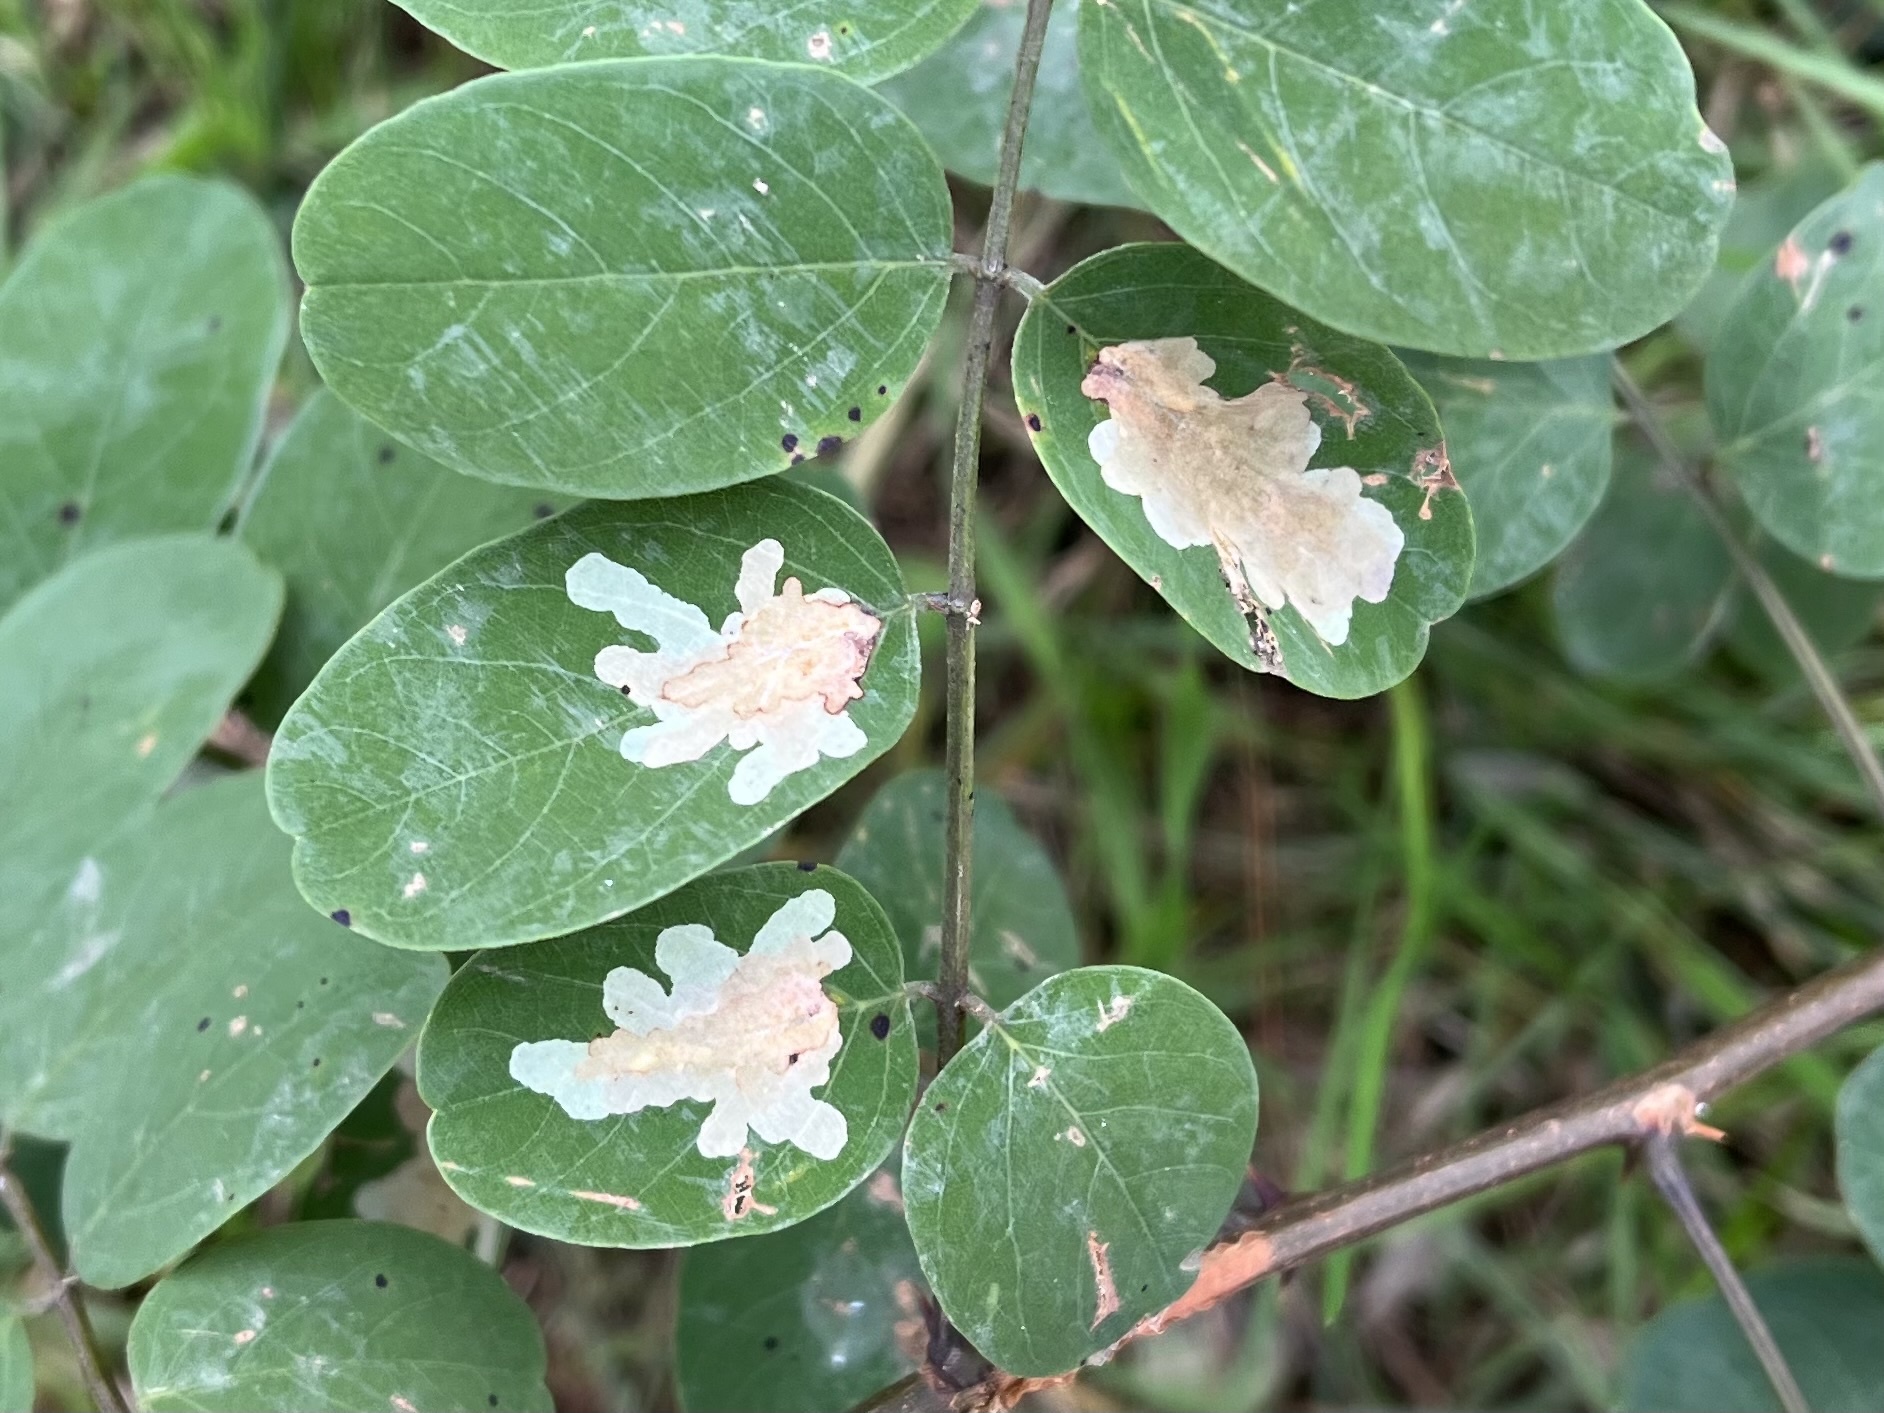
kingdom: Animalia
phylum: Arthropoda
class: Insecta
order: Lepidoptera
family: Gracillariidae
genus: Parectopa
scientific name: Parectopa robiniella
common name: Locust digitate leafminer
